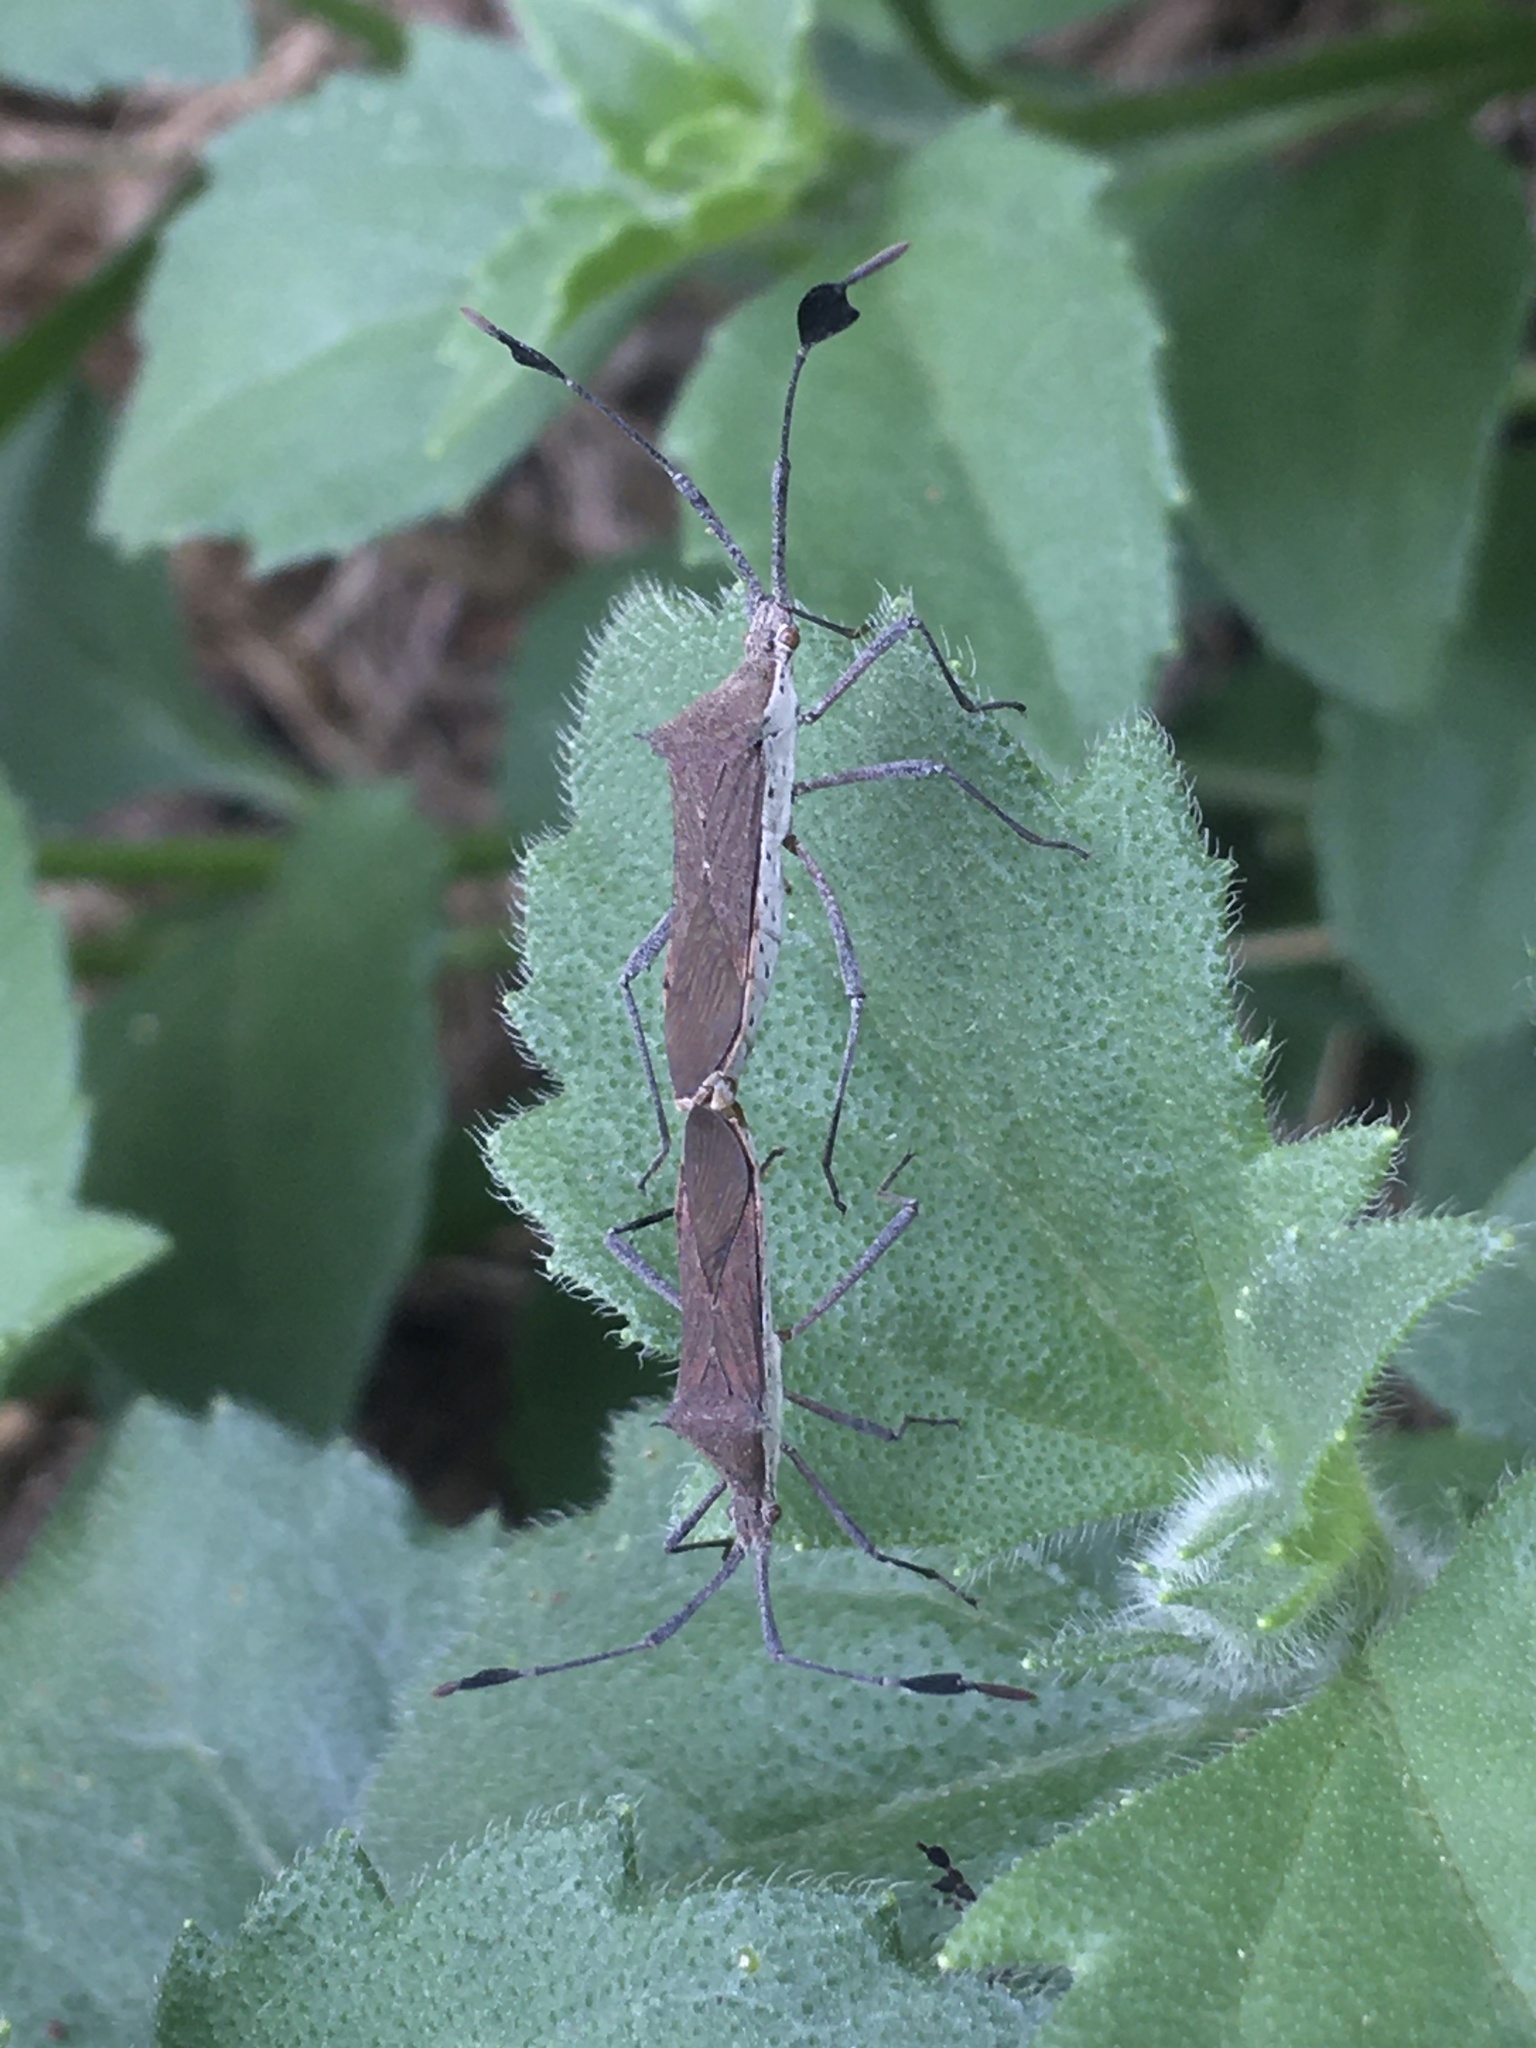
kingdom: Animalia
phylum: Arthropoda
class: Insecta
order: Hemiptera
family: Coreidae
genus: Chariesterus
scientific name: Chariesterus armatus
